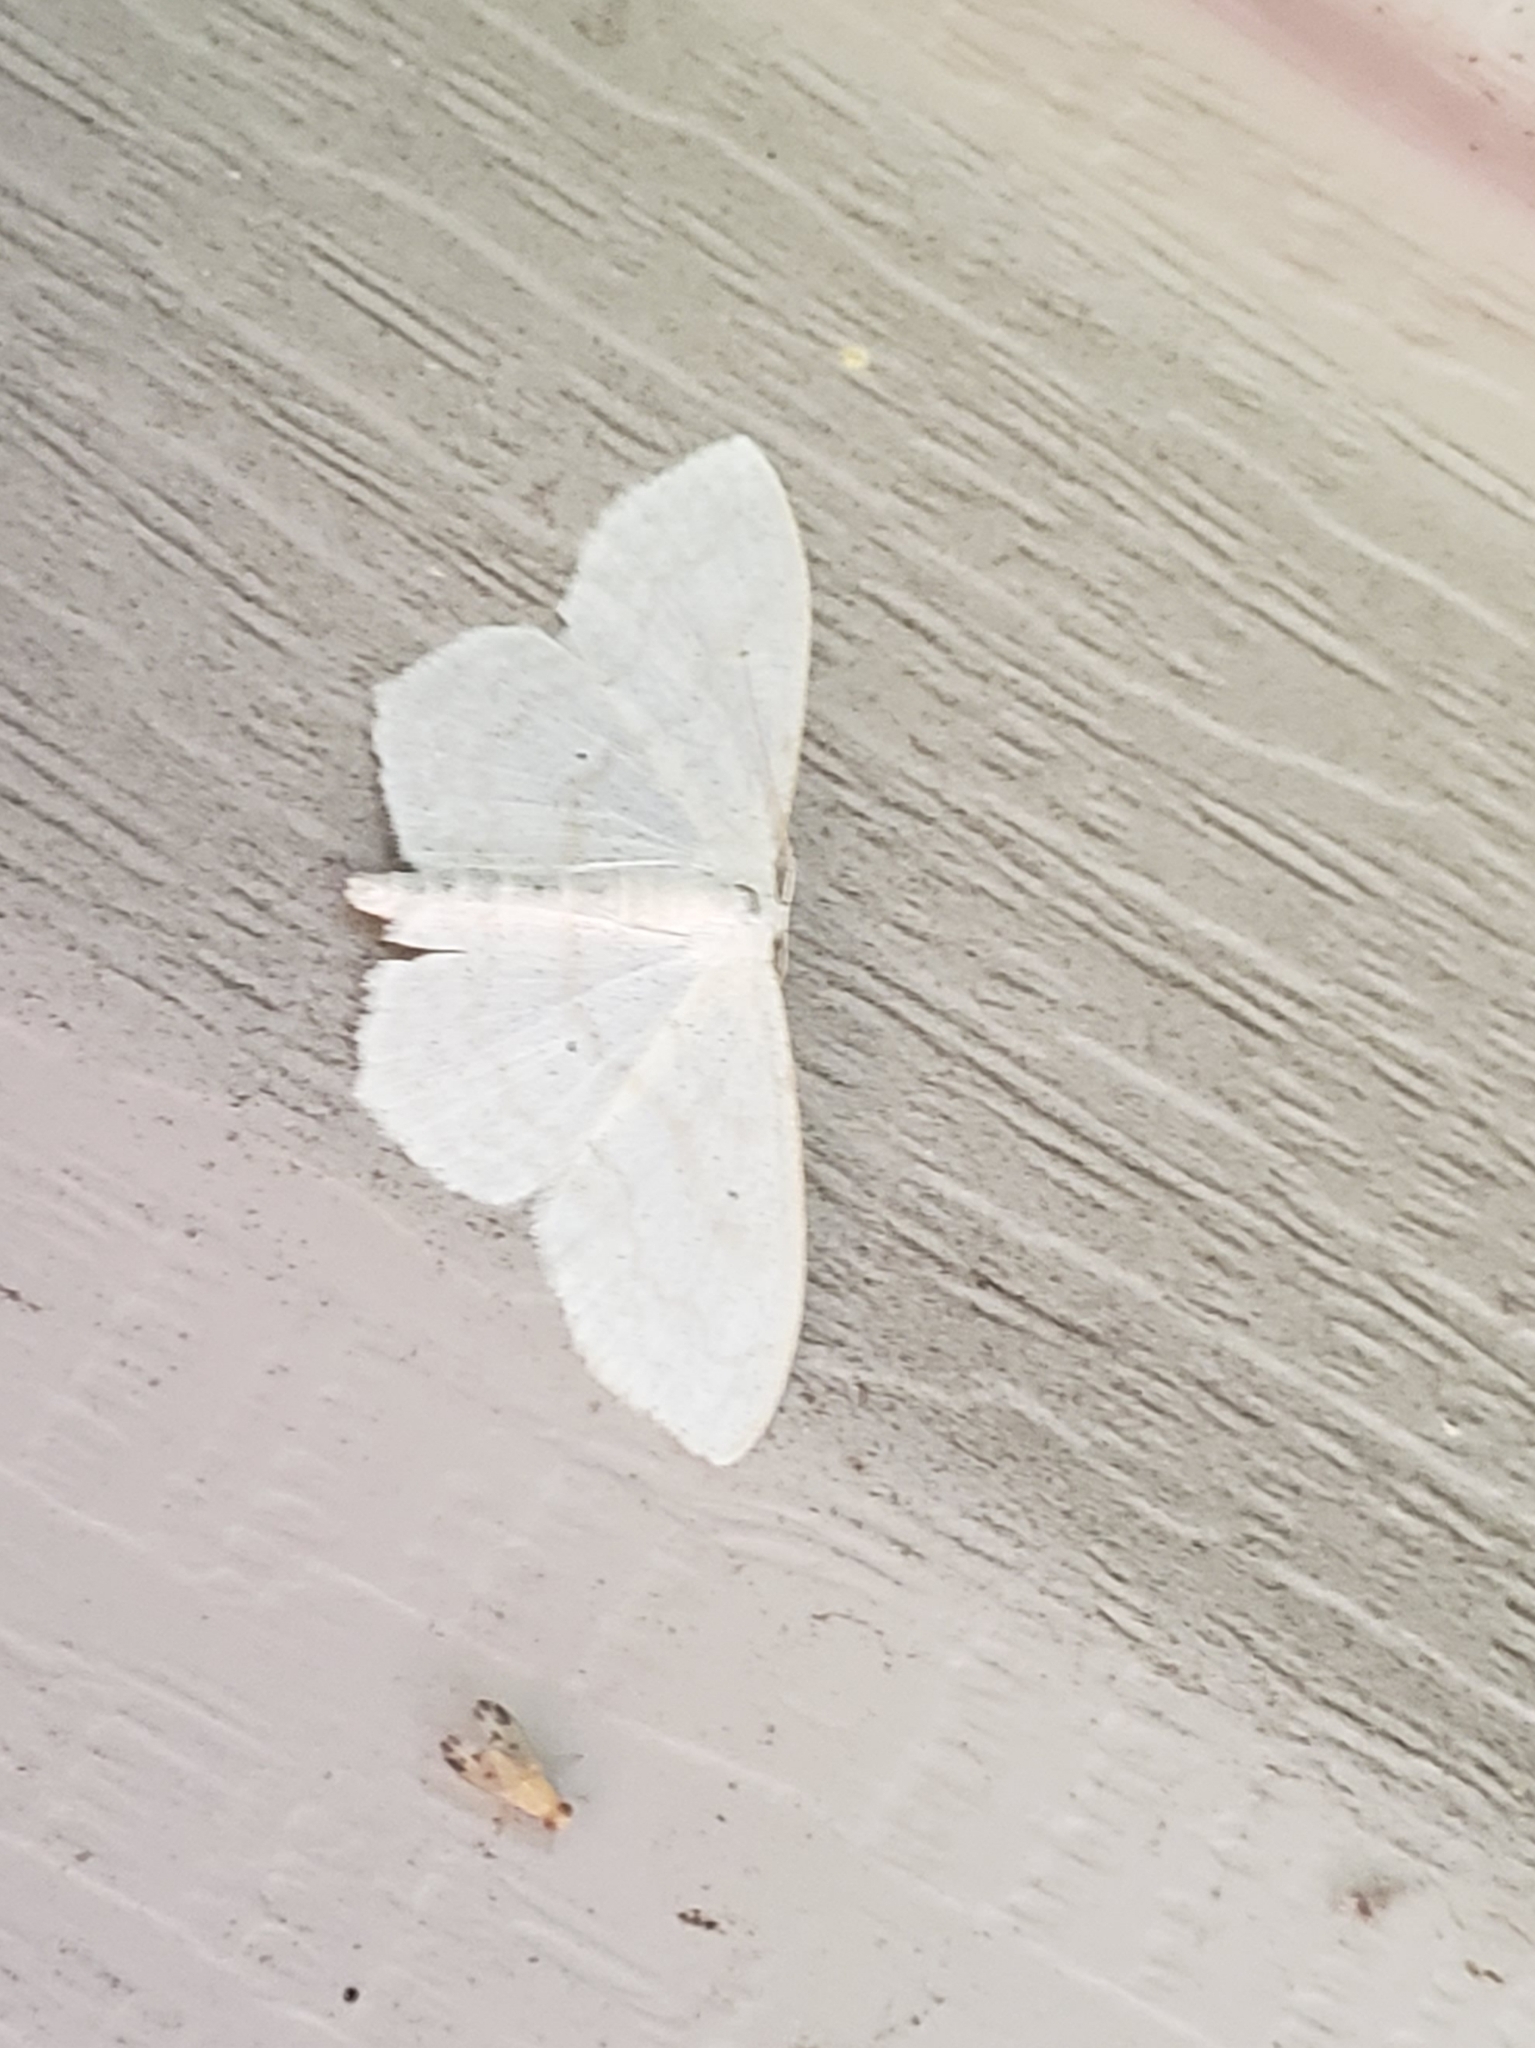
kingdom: Animalia
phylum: Arthropoda
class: Insecta
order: Lepidoptera
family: Geometridae
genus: Scopula
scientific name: Scopula limboundata
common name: Large lace border
